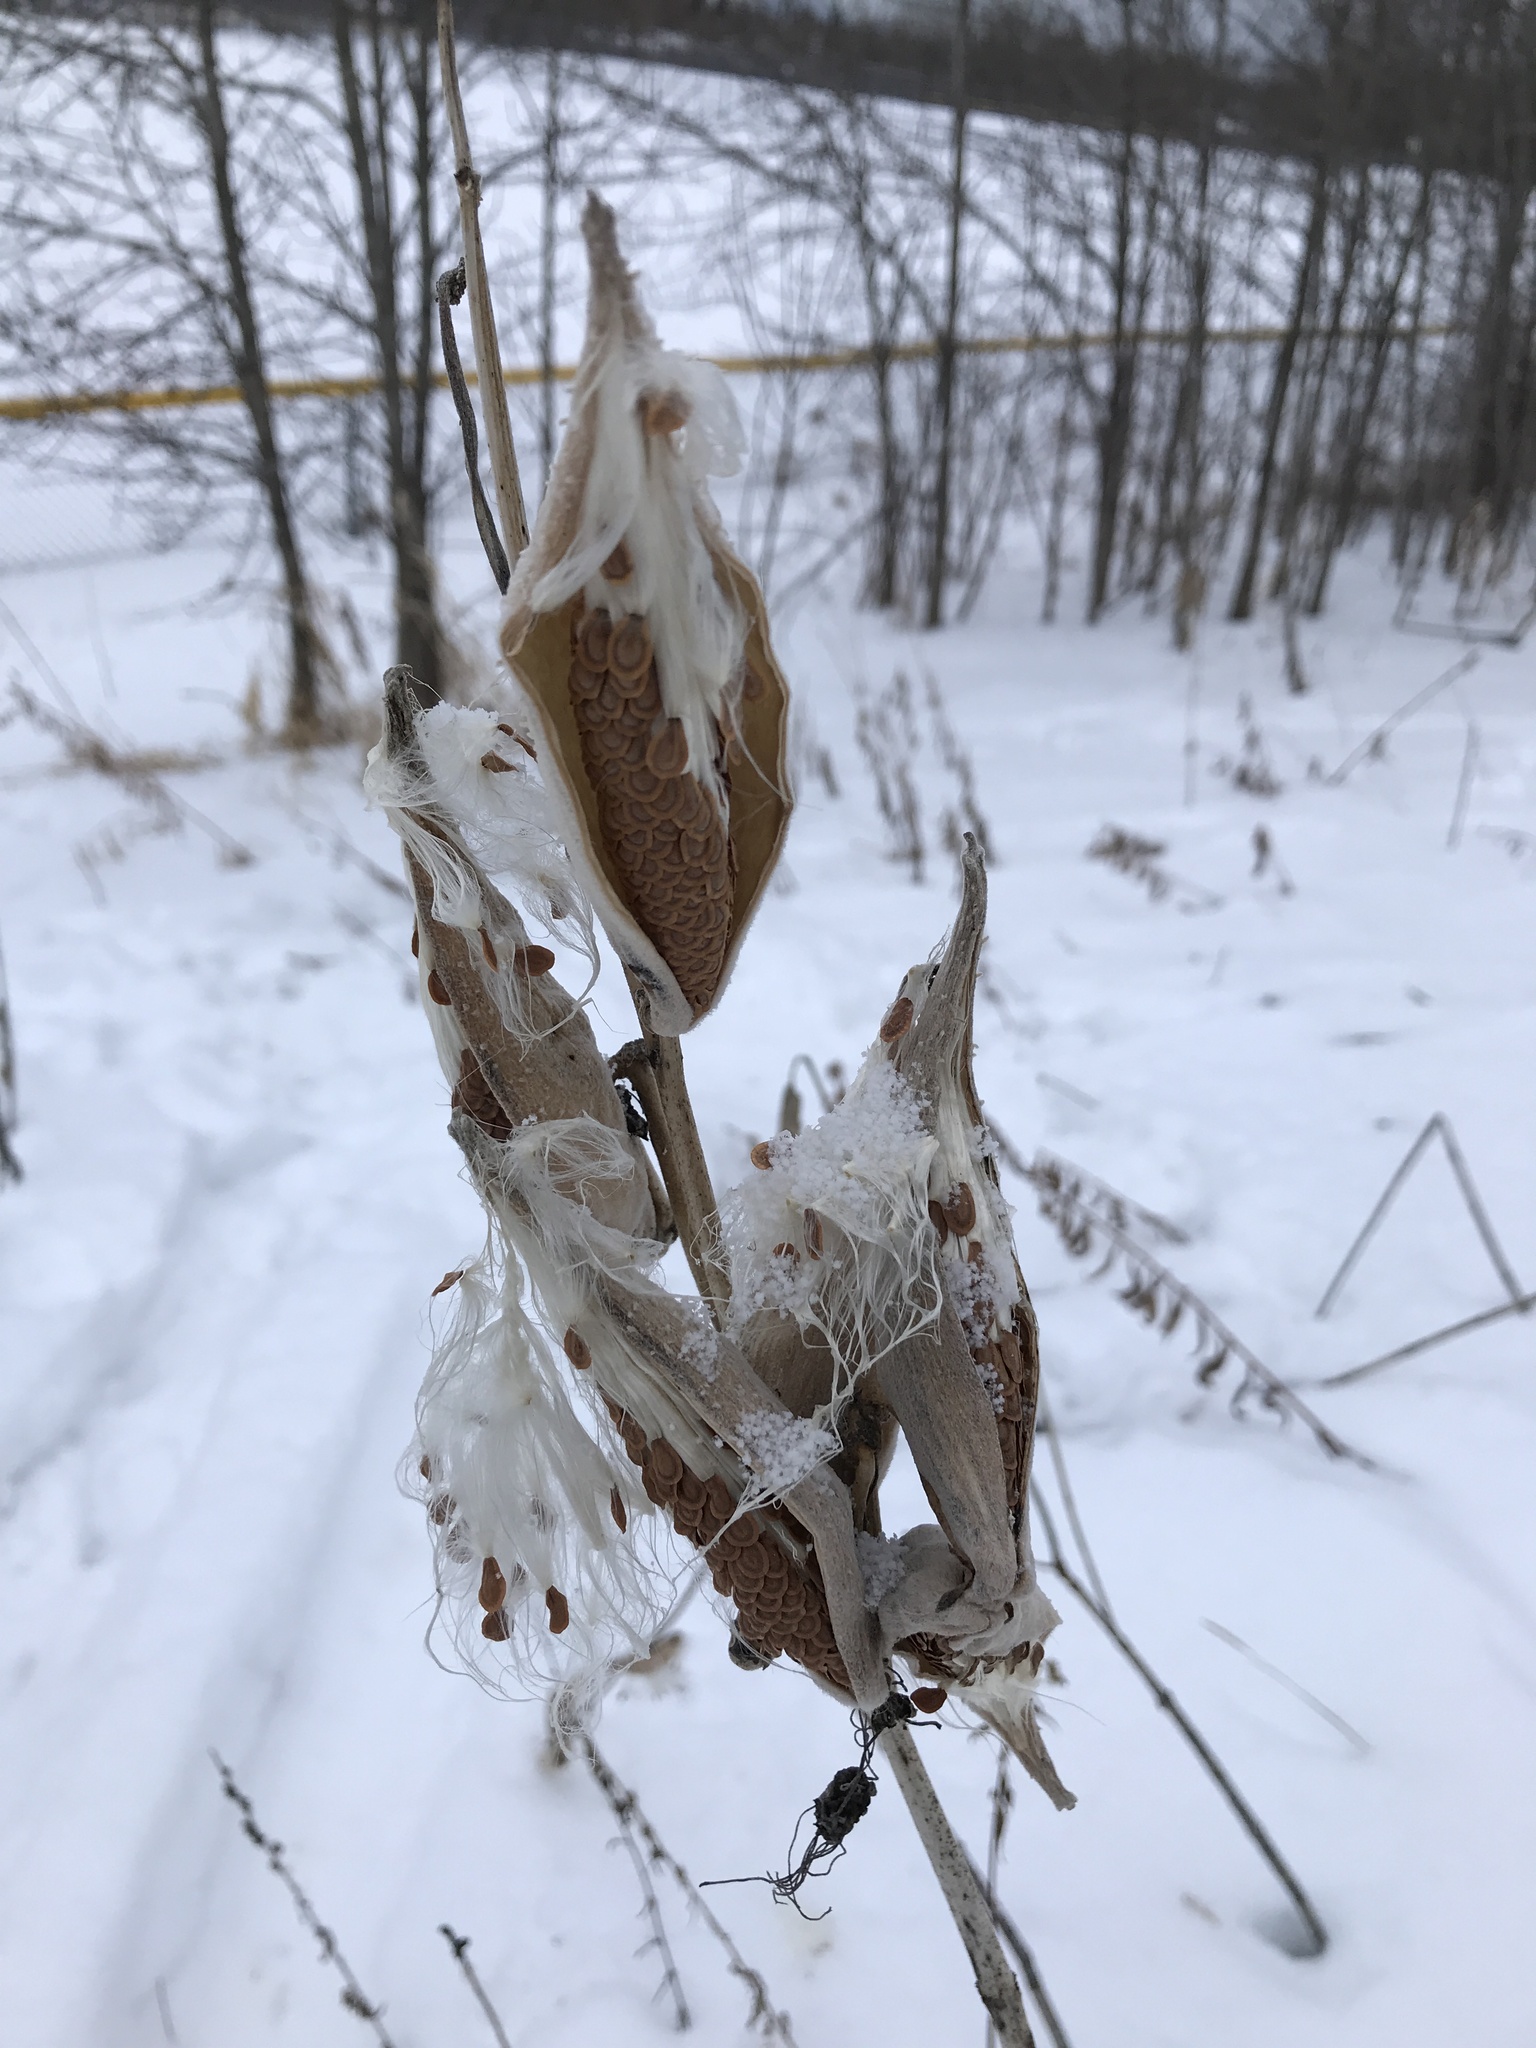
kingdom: Plantae
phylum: Tracheophyta
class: Magnoliopsida
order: Gentianales
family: Apocynaceae
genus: Asclepias
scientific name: Asclepias syriaca
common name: Common milkweed
